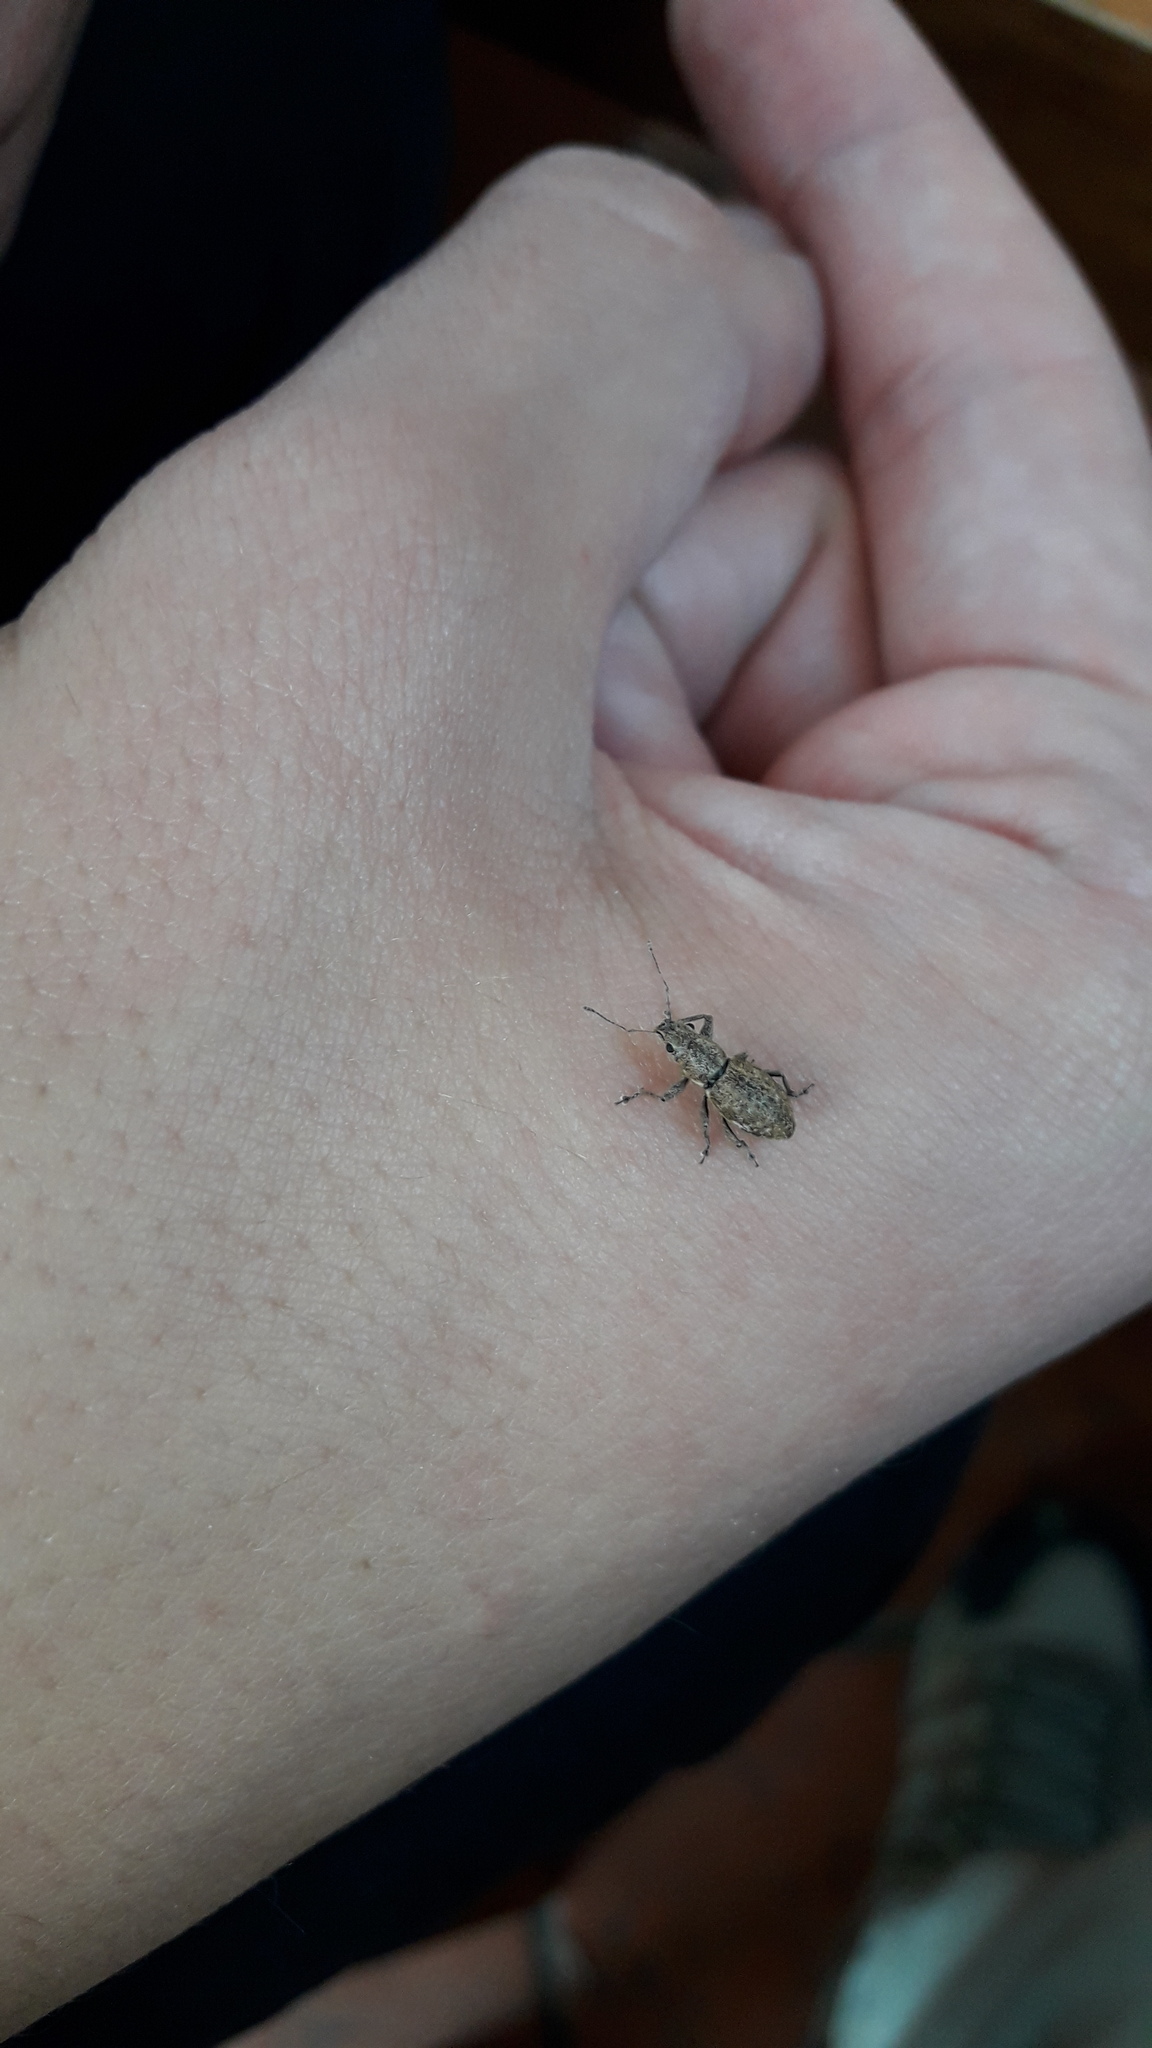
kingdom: Animalia
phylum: Arthropoda
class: Insecta
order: Coleoptera
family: Curculionidae
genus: Naupactus
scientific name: Naupactus cervinus
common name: Fuller rose beetle
